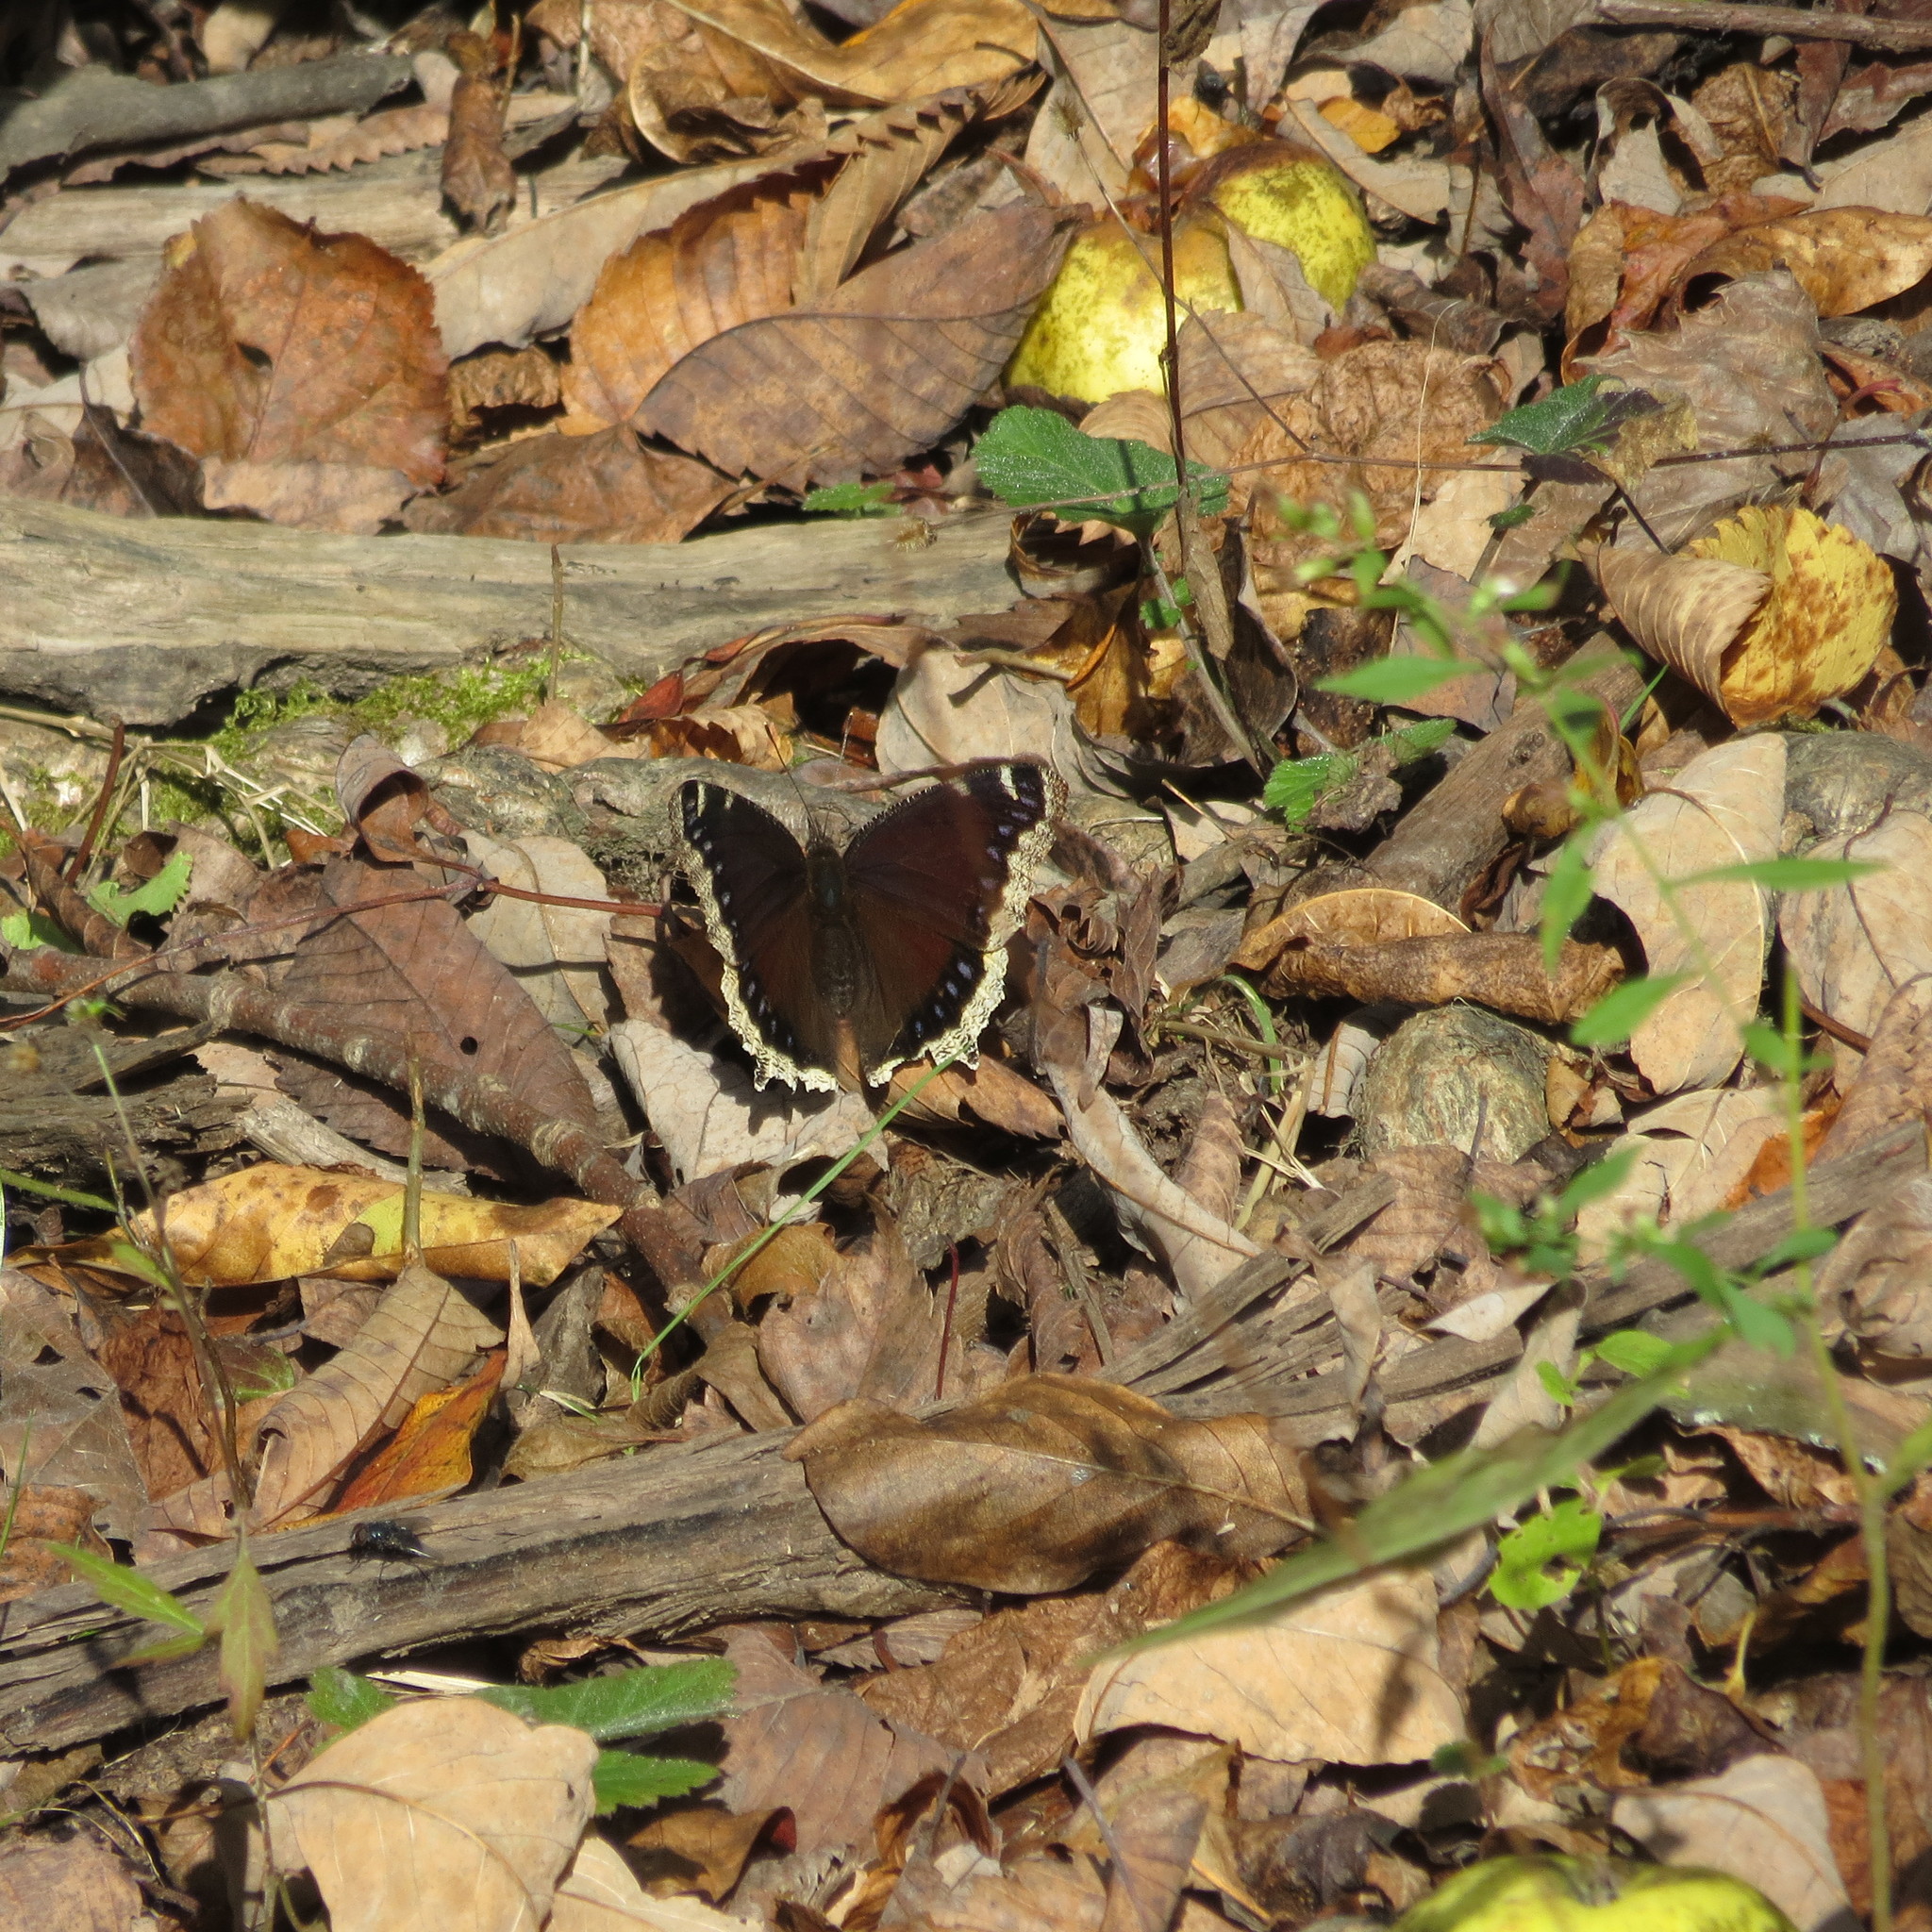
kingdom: Animalia
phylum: Arthropoda
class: Insecta
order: Lepidoptera
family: Nymphalidae
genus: Nymphalis
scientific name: Nymphalis antiopa
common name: Camberwell beauty
